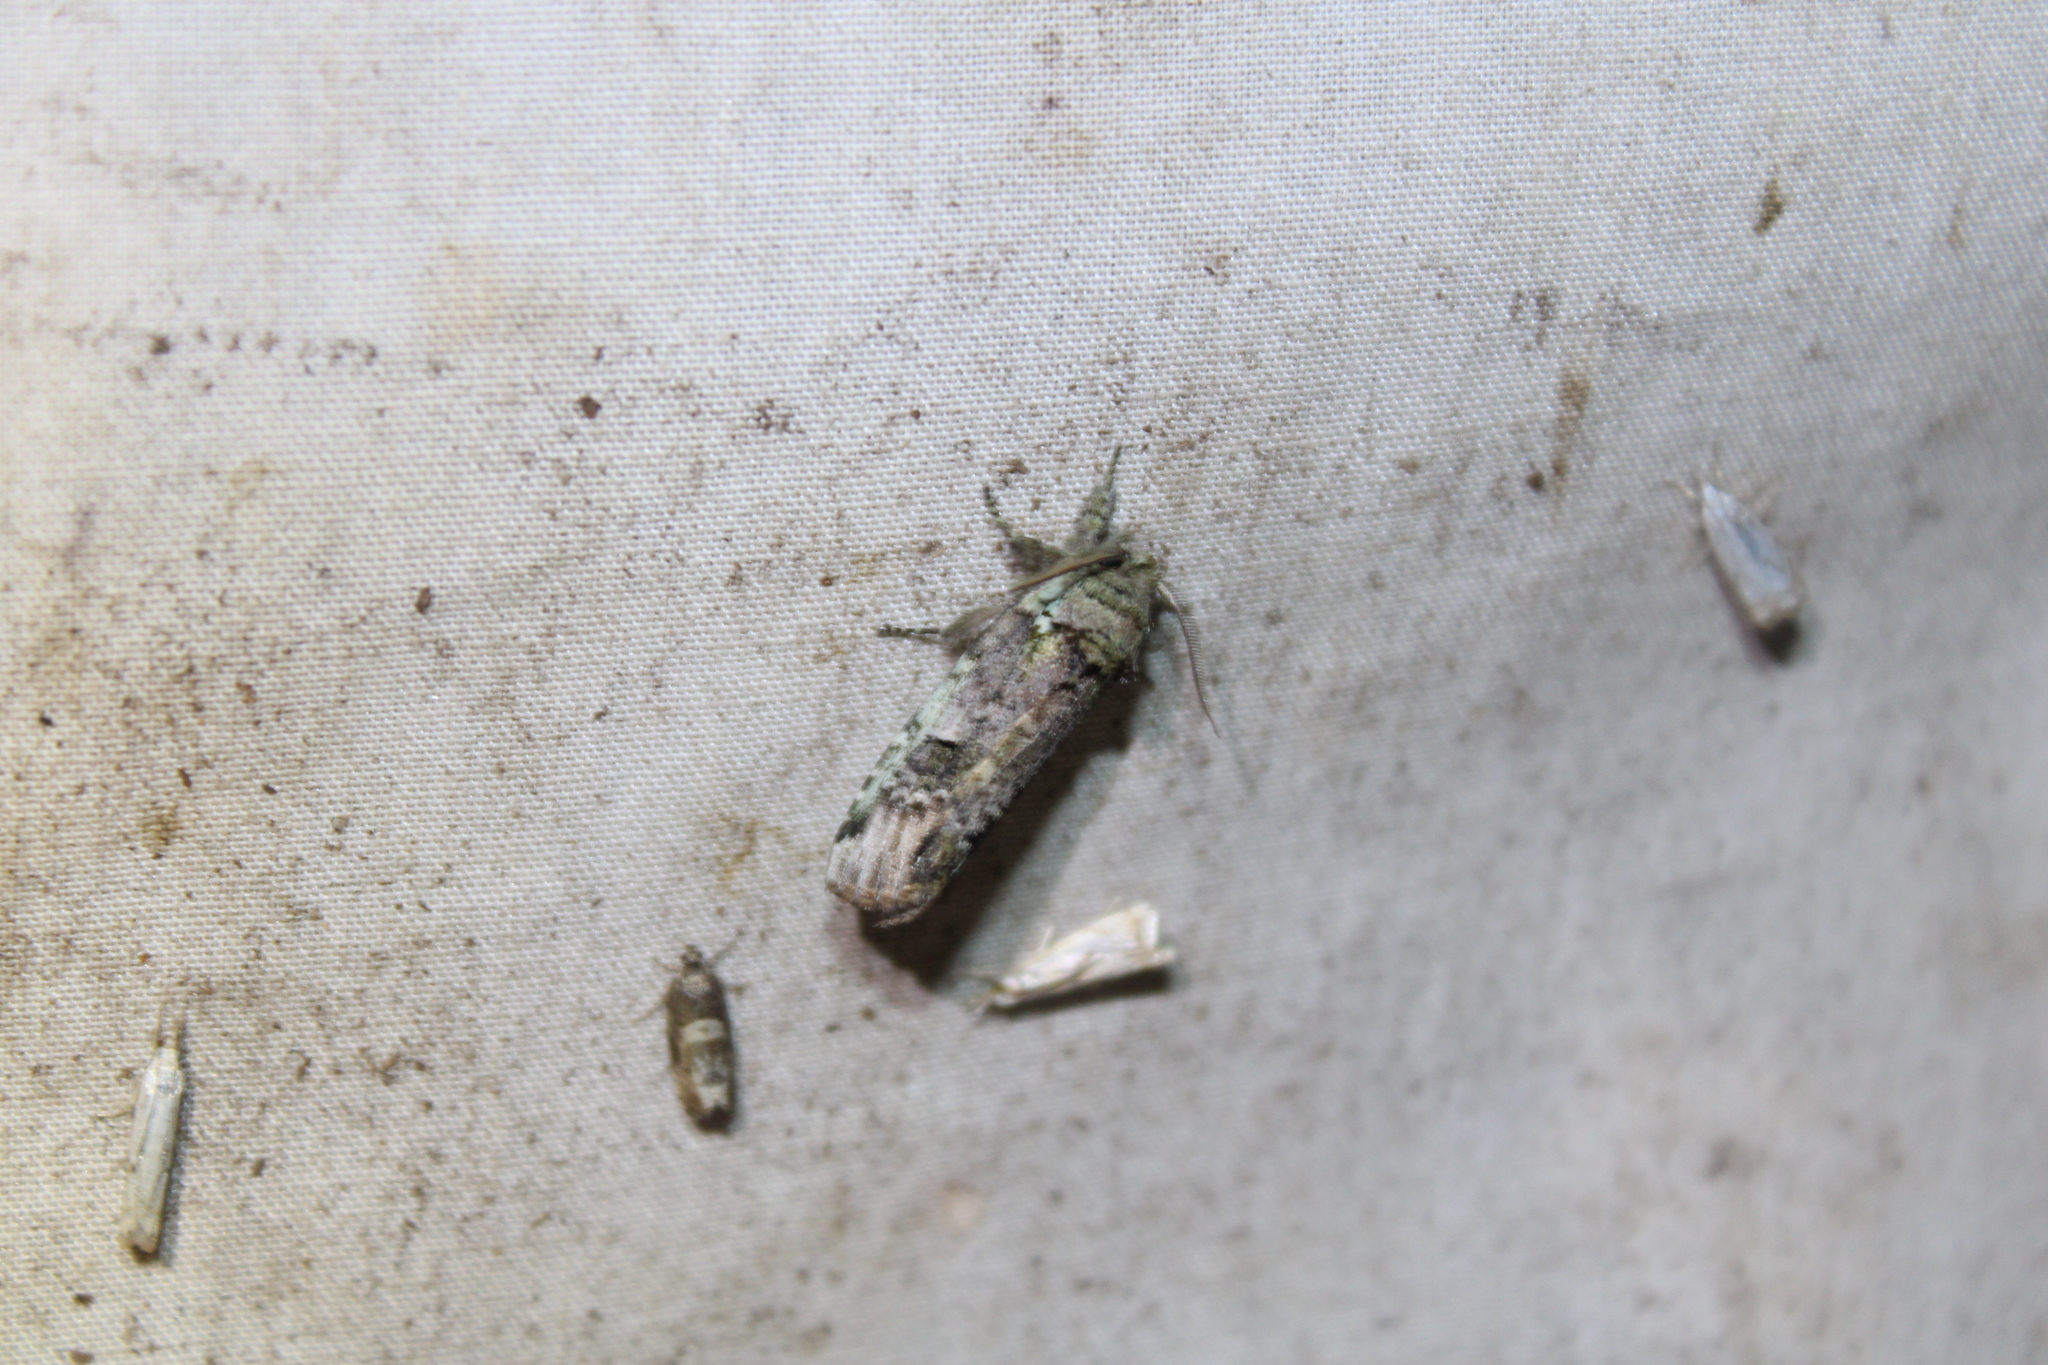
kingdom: Animalia
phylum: Arthropoda
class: Insecta
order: Lepidoptera
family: Notodontidae
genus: Schizura
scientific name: Schizura
